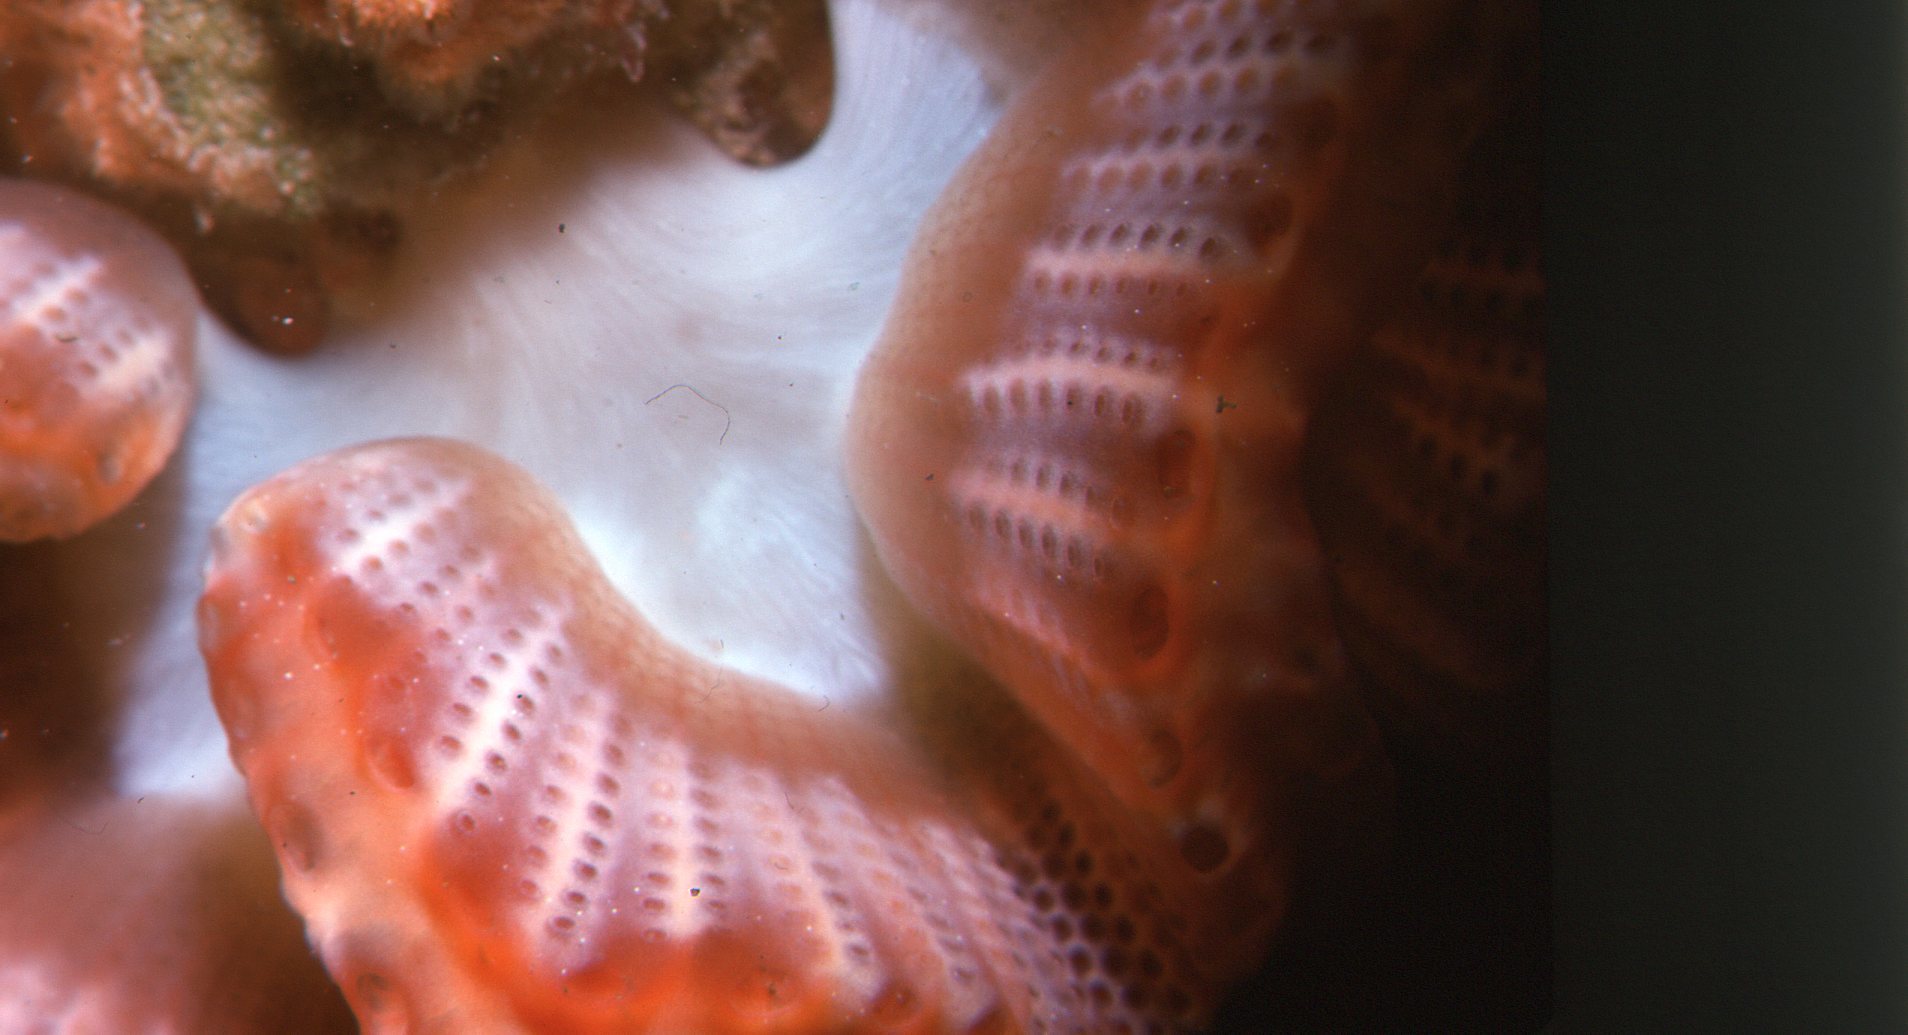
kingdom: Animalia
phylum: Chordata
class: Ascidiacea
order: Aplousobranchia
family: Holozoidae
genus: Sycozoa
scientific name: Sycozoa cerebriformis
